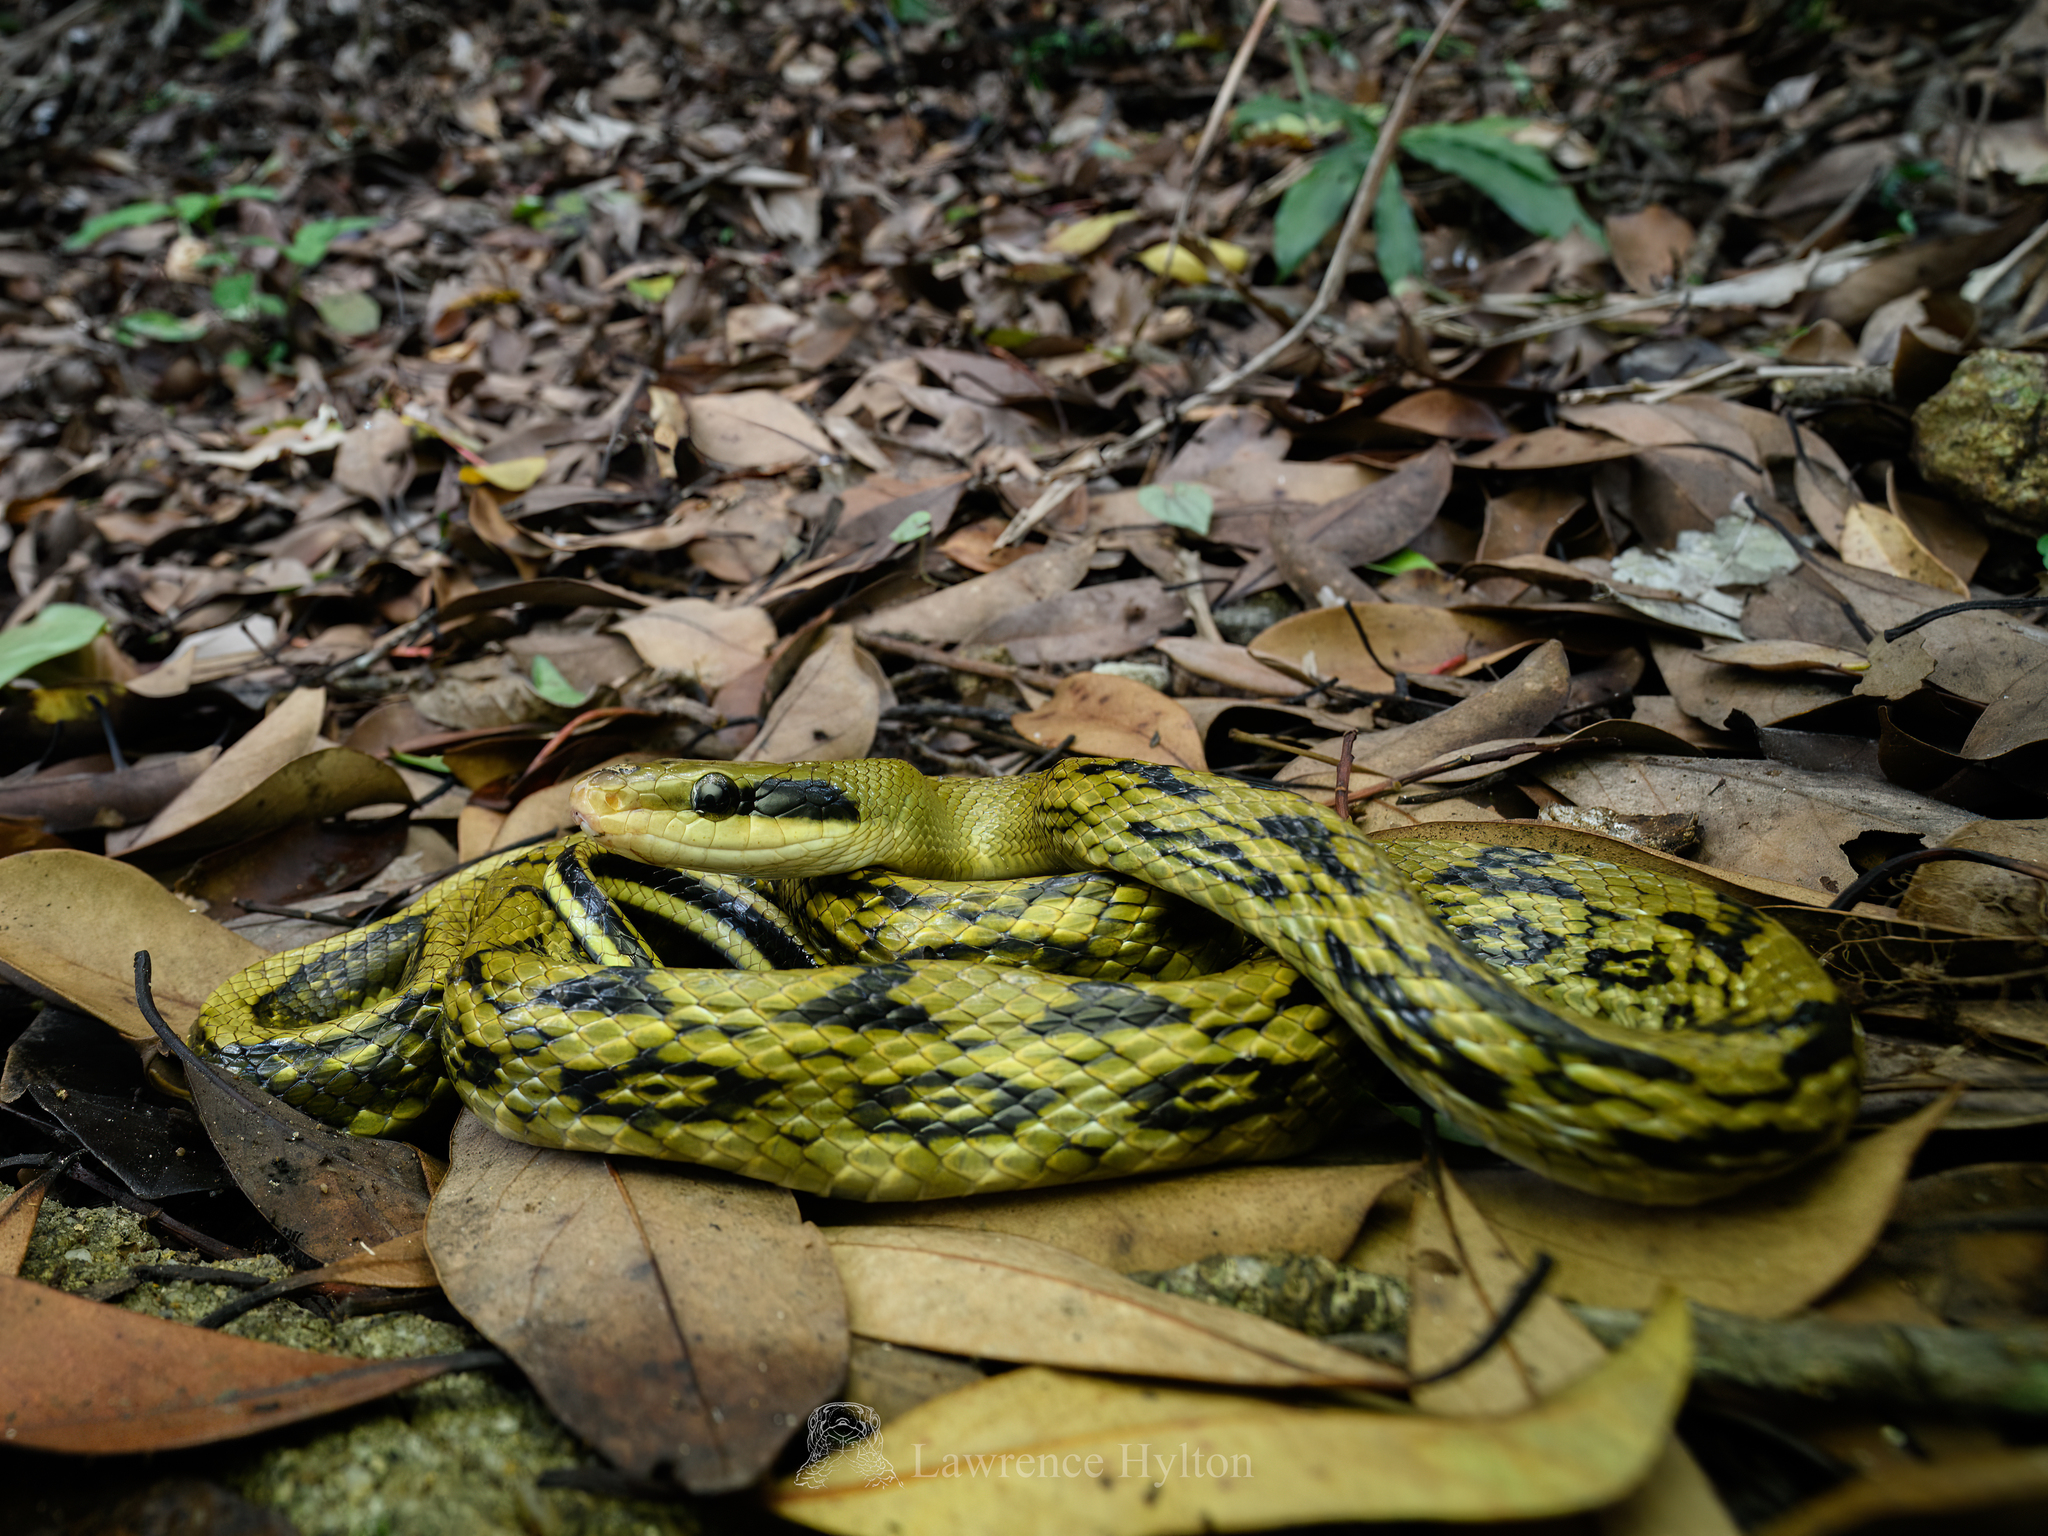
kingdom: Animalia
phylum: Chordata
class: Squamata
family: Colubridae
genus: Elaphe
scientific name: Elaphe taeniura
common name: Beauty snake
